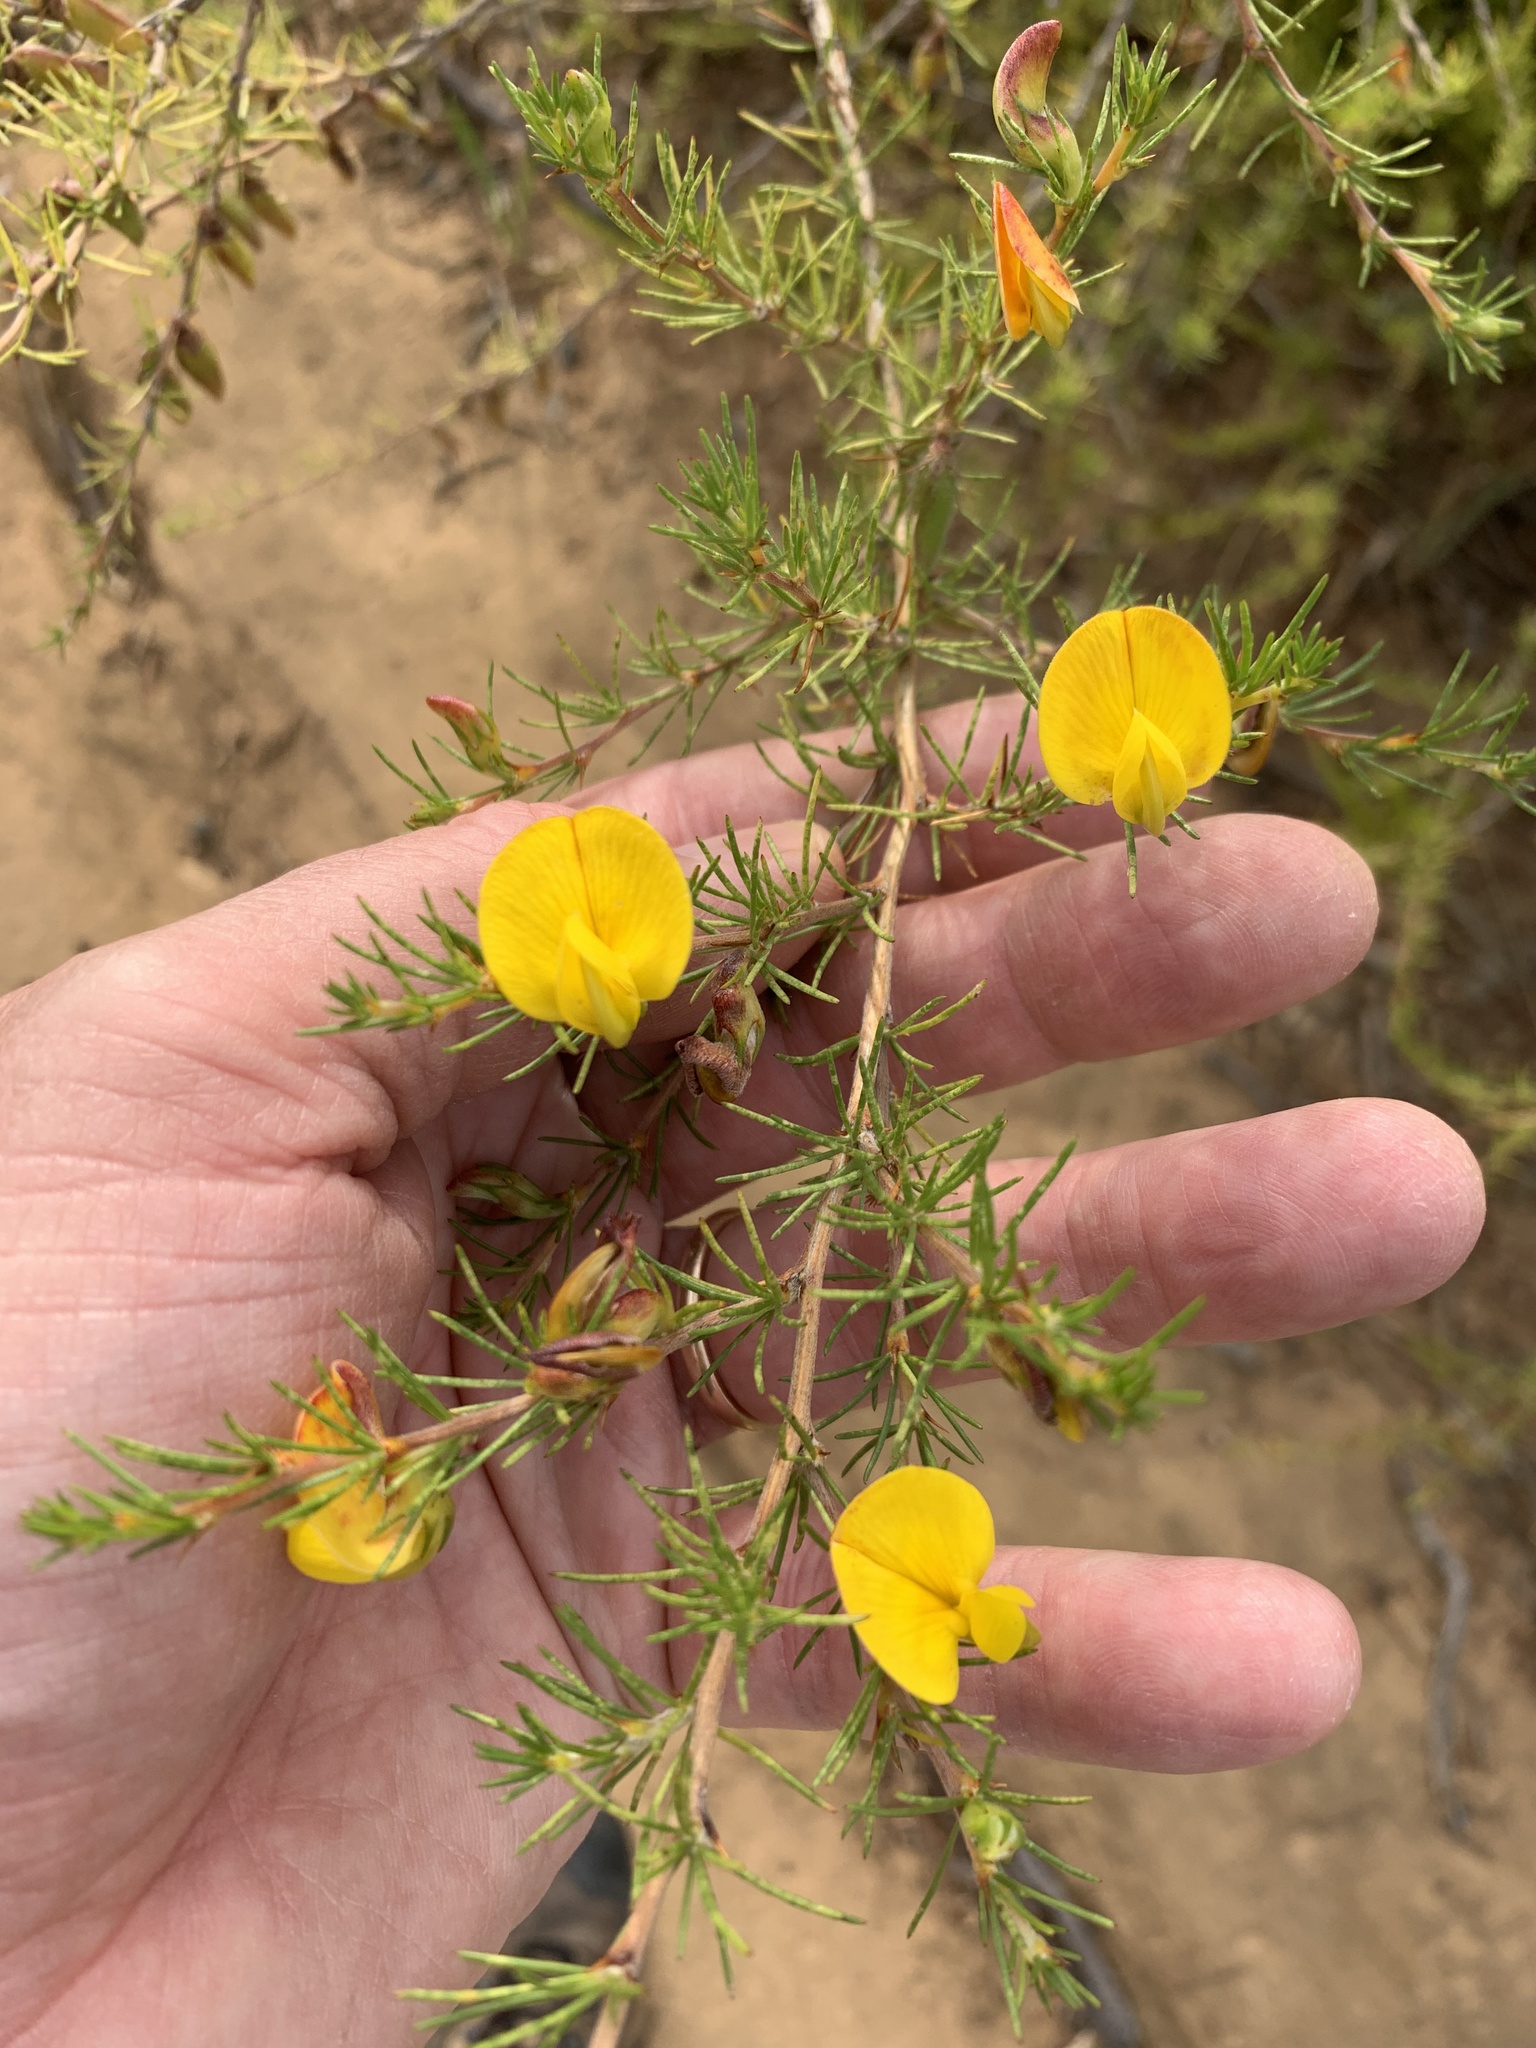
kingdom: Plantae
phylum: Tracheophyta
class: Magnoliopsida
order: Fabales
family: Fabaceae
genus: Aspalathus
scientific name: Aspalathus uniflora
